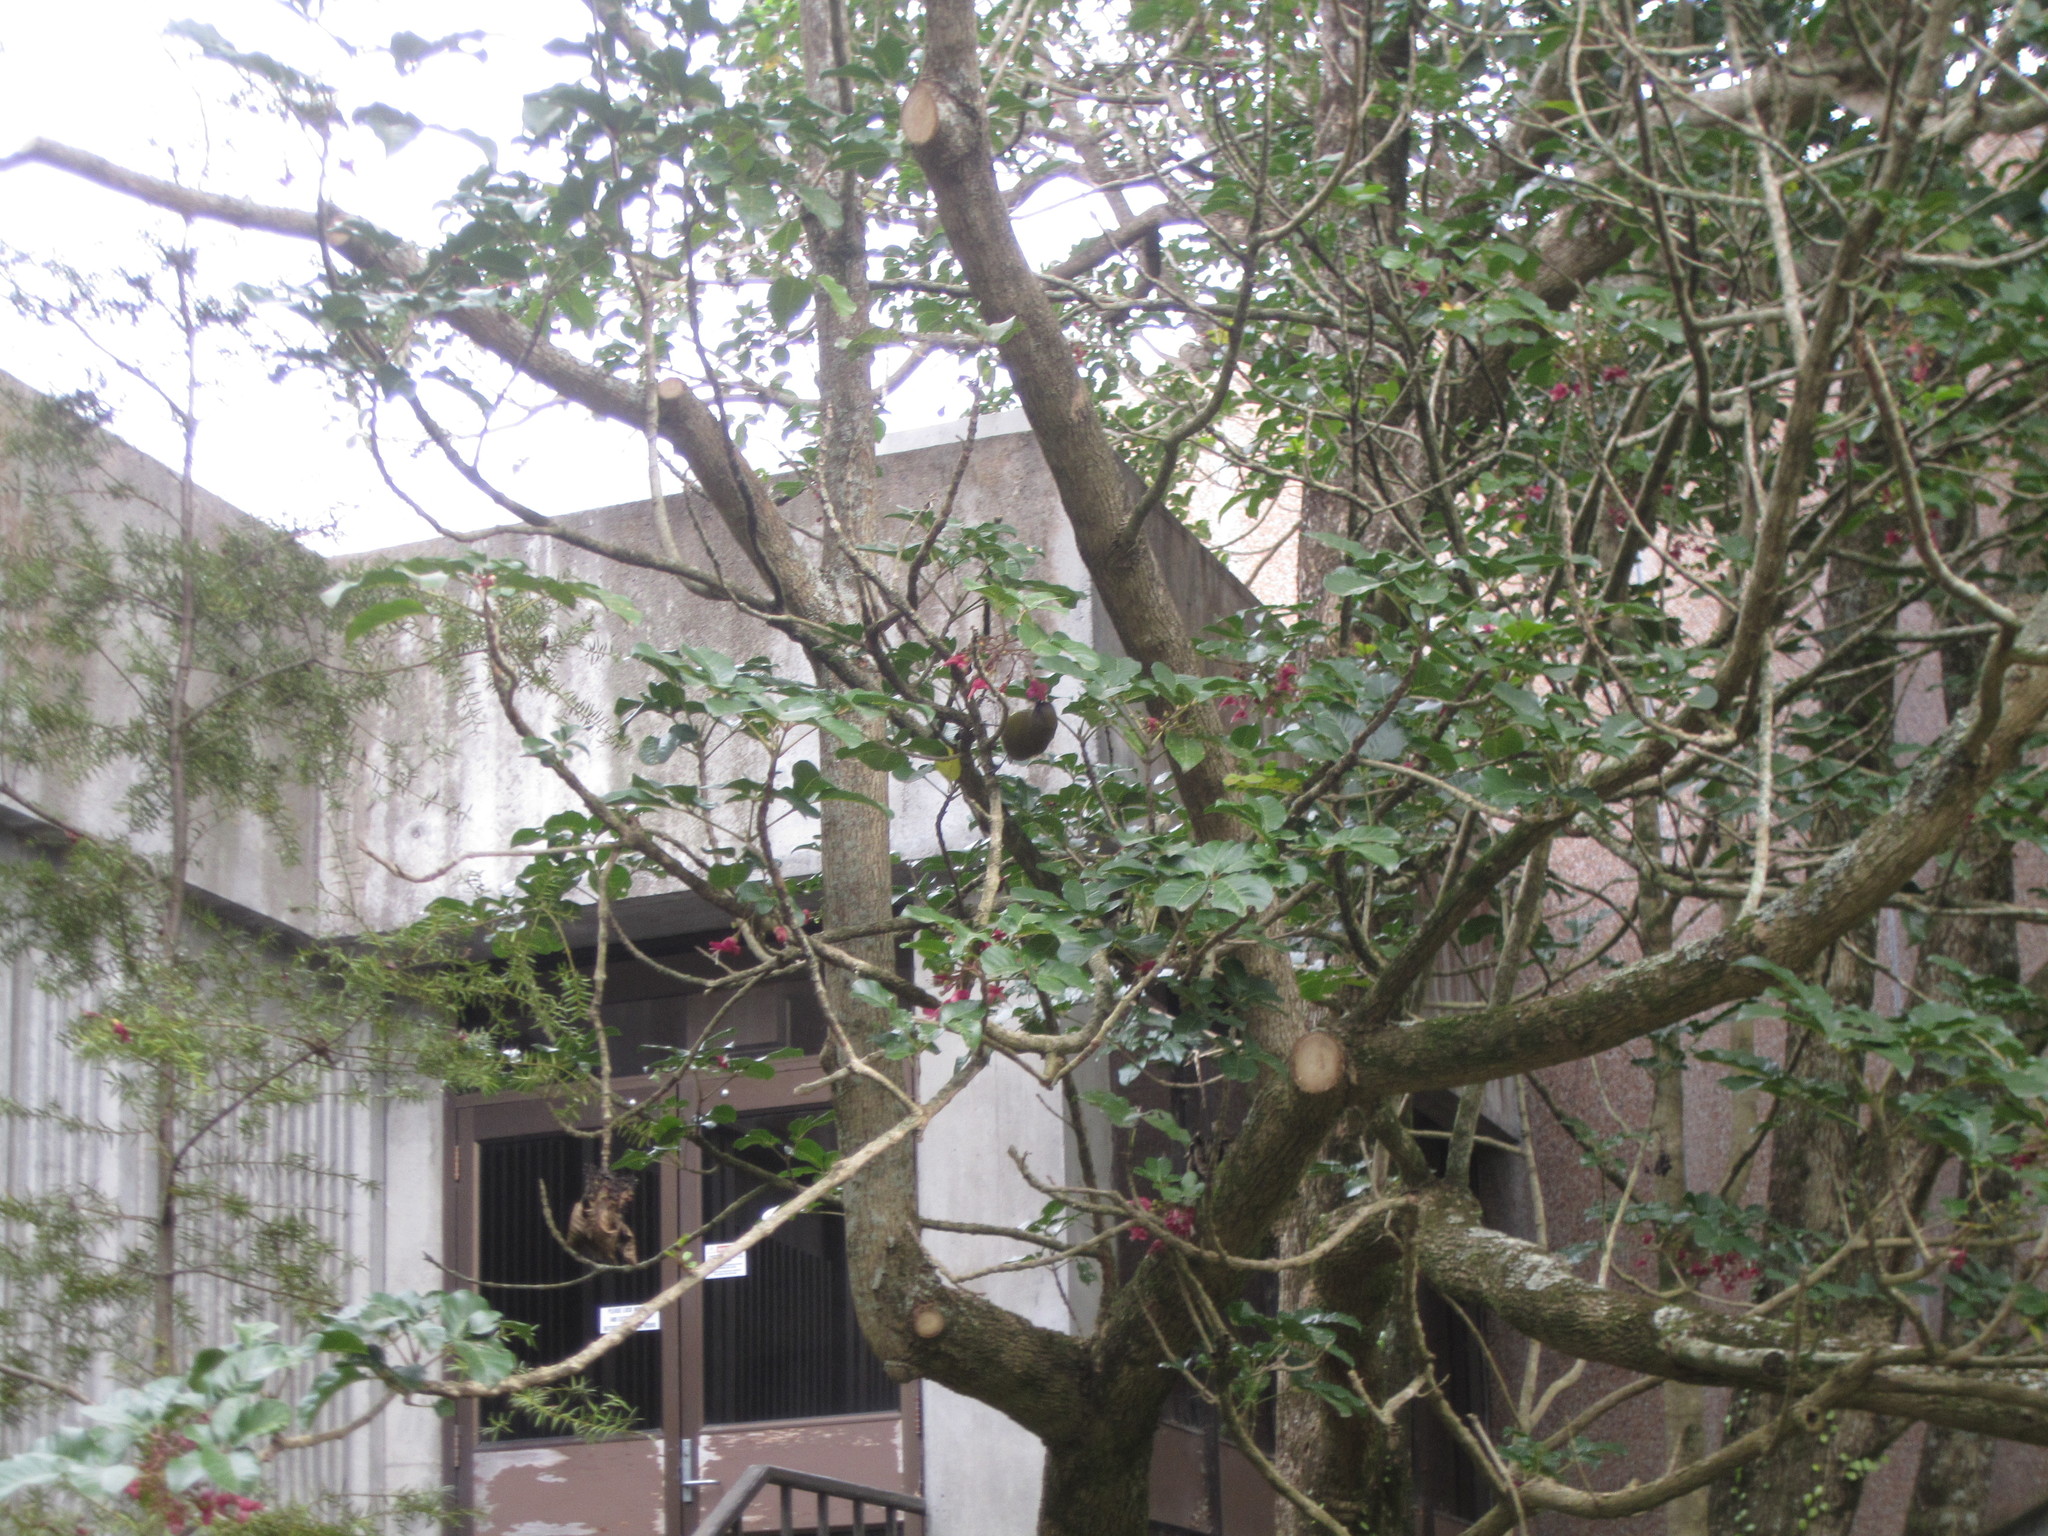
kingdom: Animalia
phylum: Chordata
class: Aves
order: Passeriformes
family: Meliphagidae
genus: Anthornis
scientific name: Anthornis melanura
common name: New zealand bellbird
